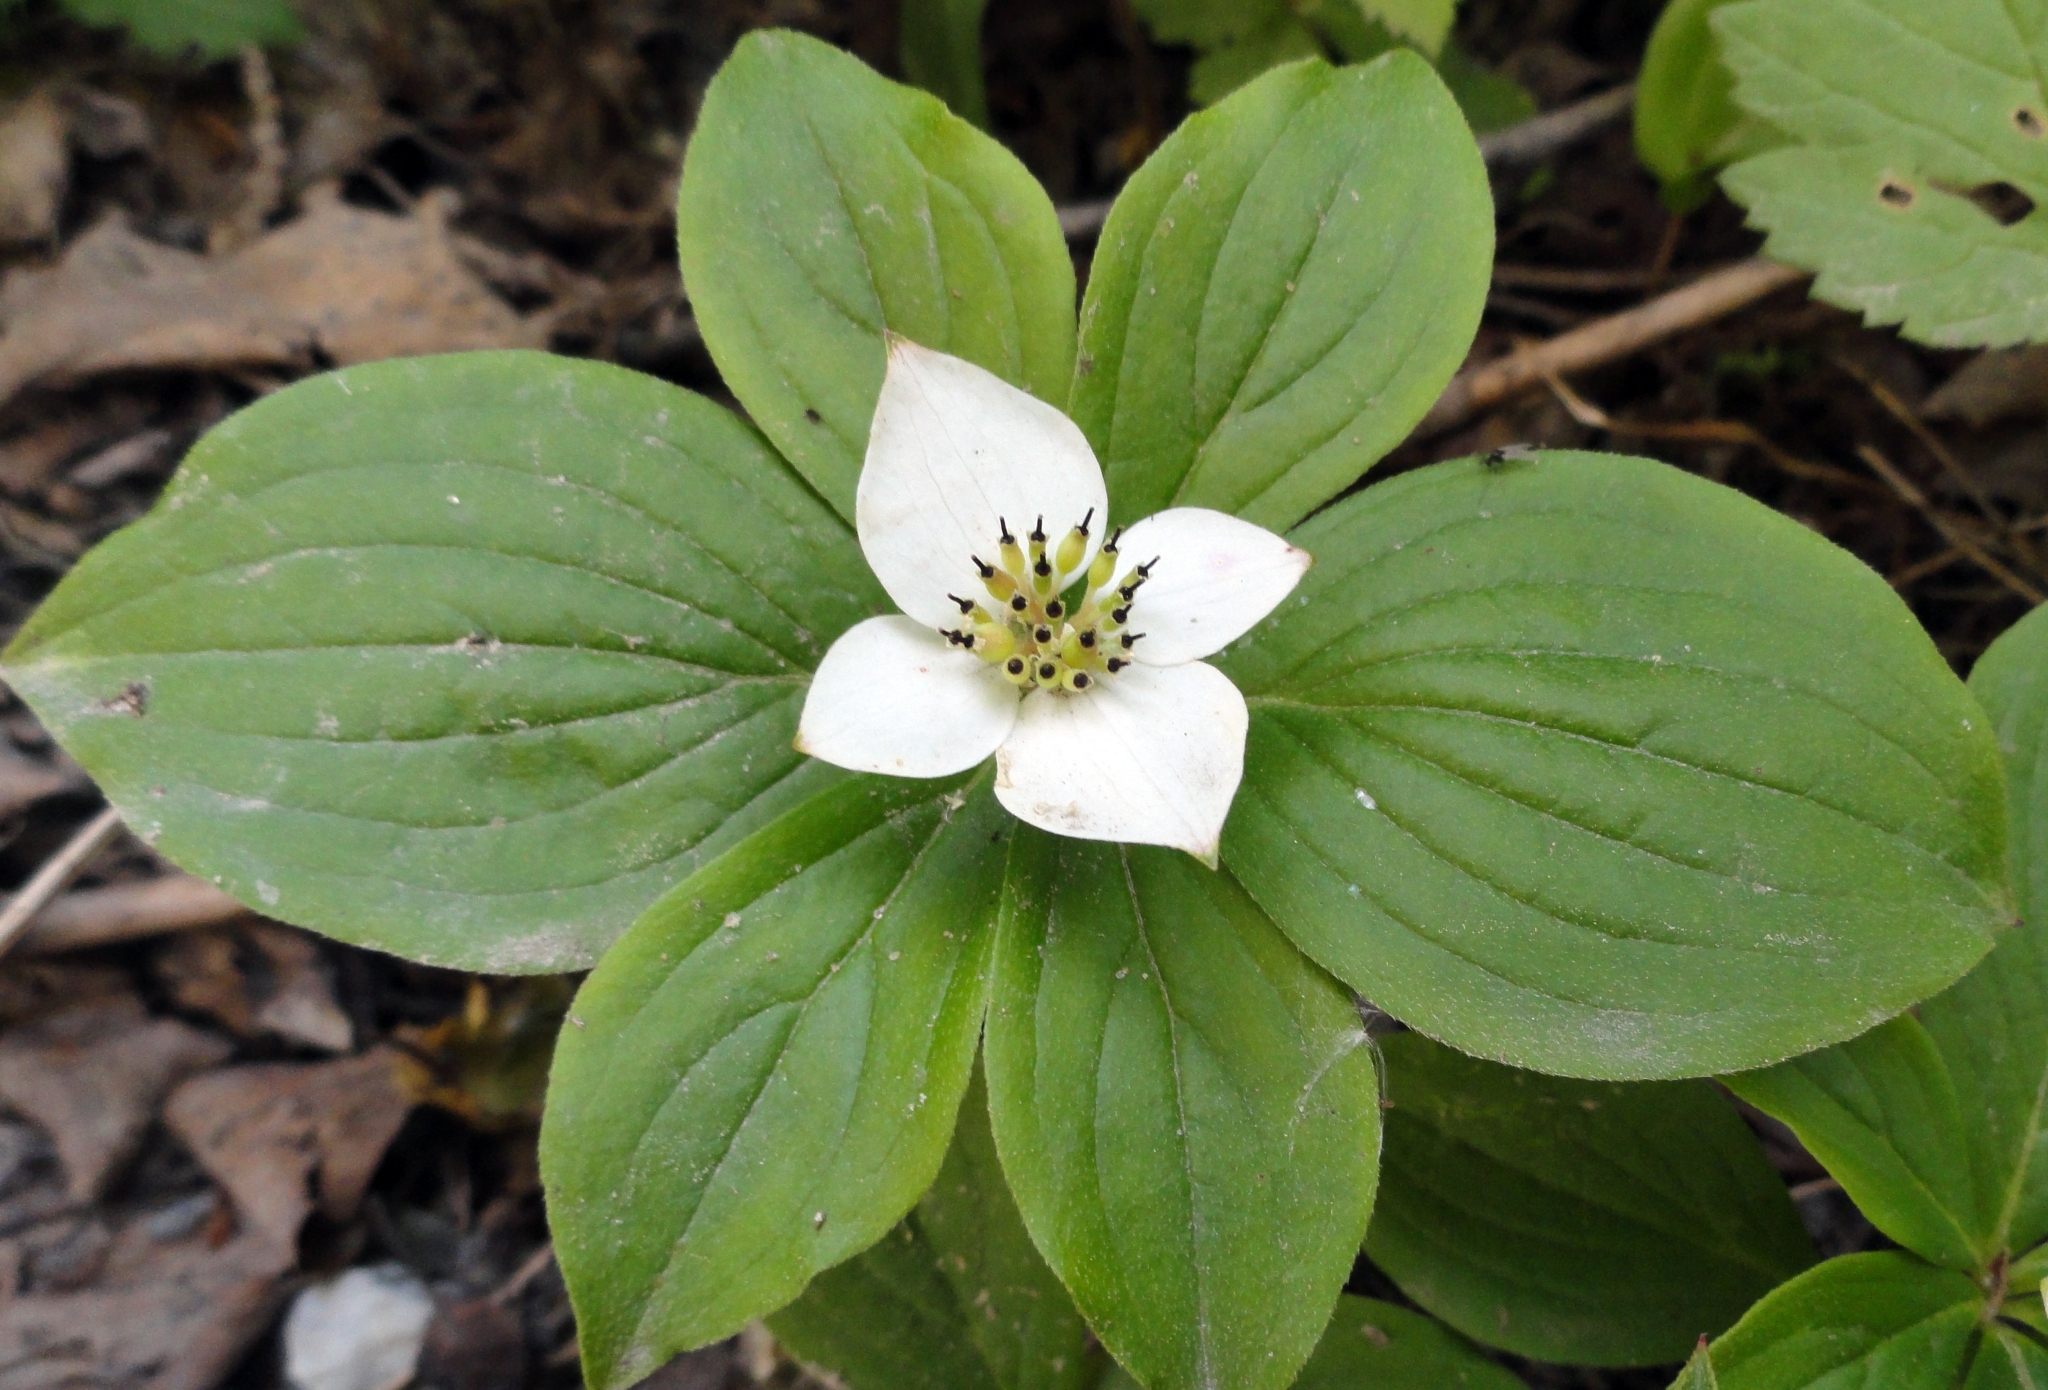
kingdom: Plantae
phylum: Tracheophyta
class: Magnoliopsida
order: Cornales
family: Cornaceae
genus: Cornus
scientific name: Cornus canadensis
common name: Creeping dogwood
